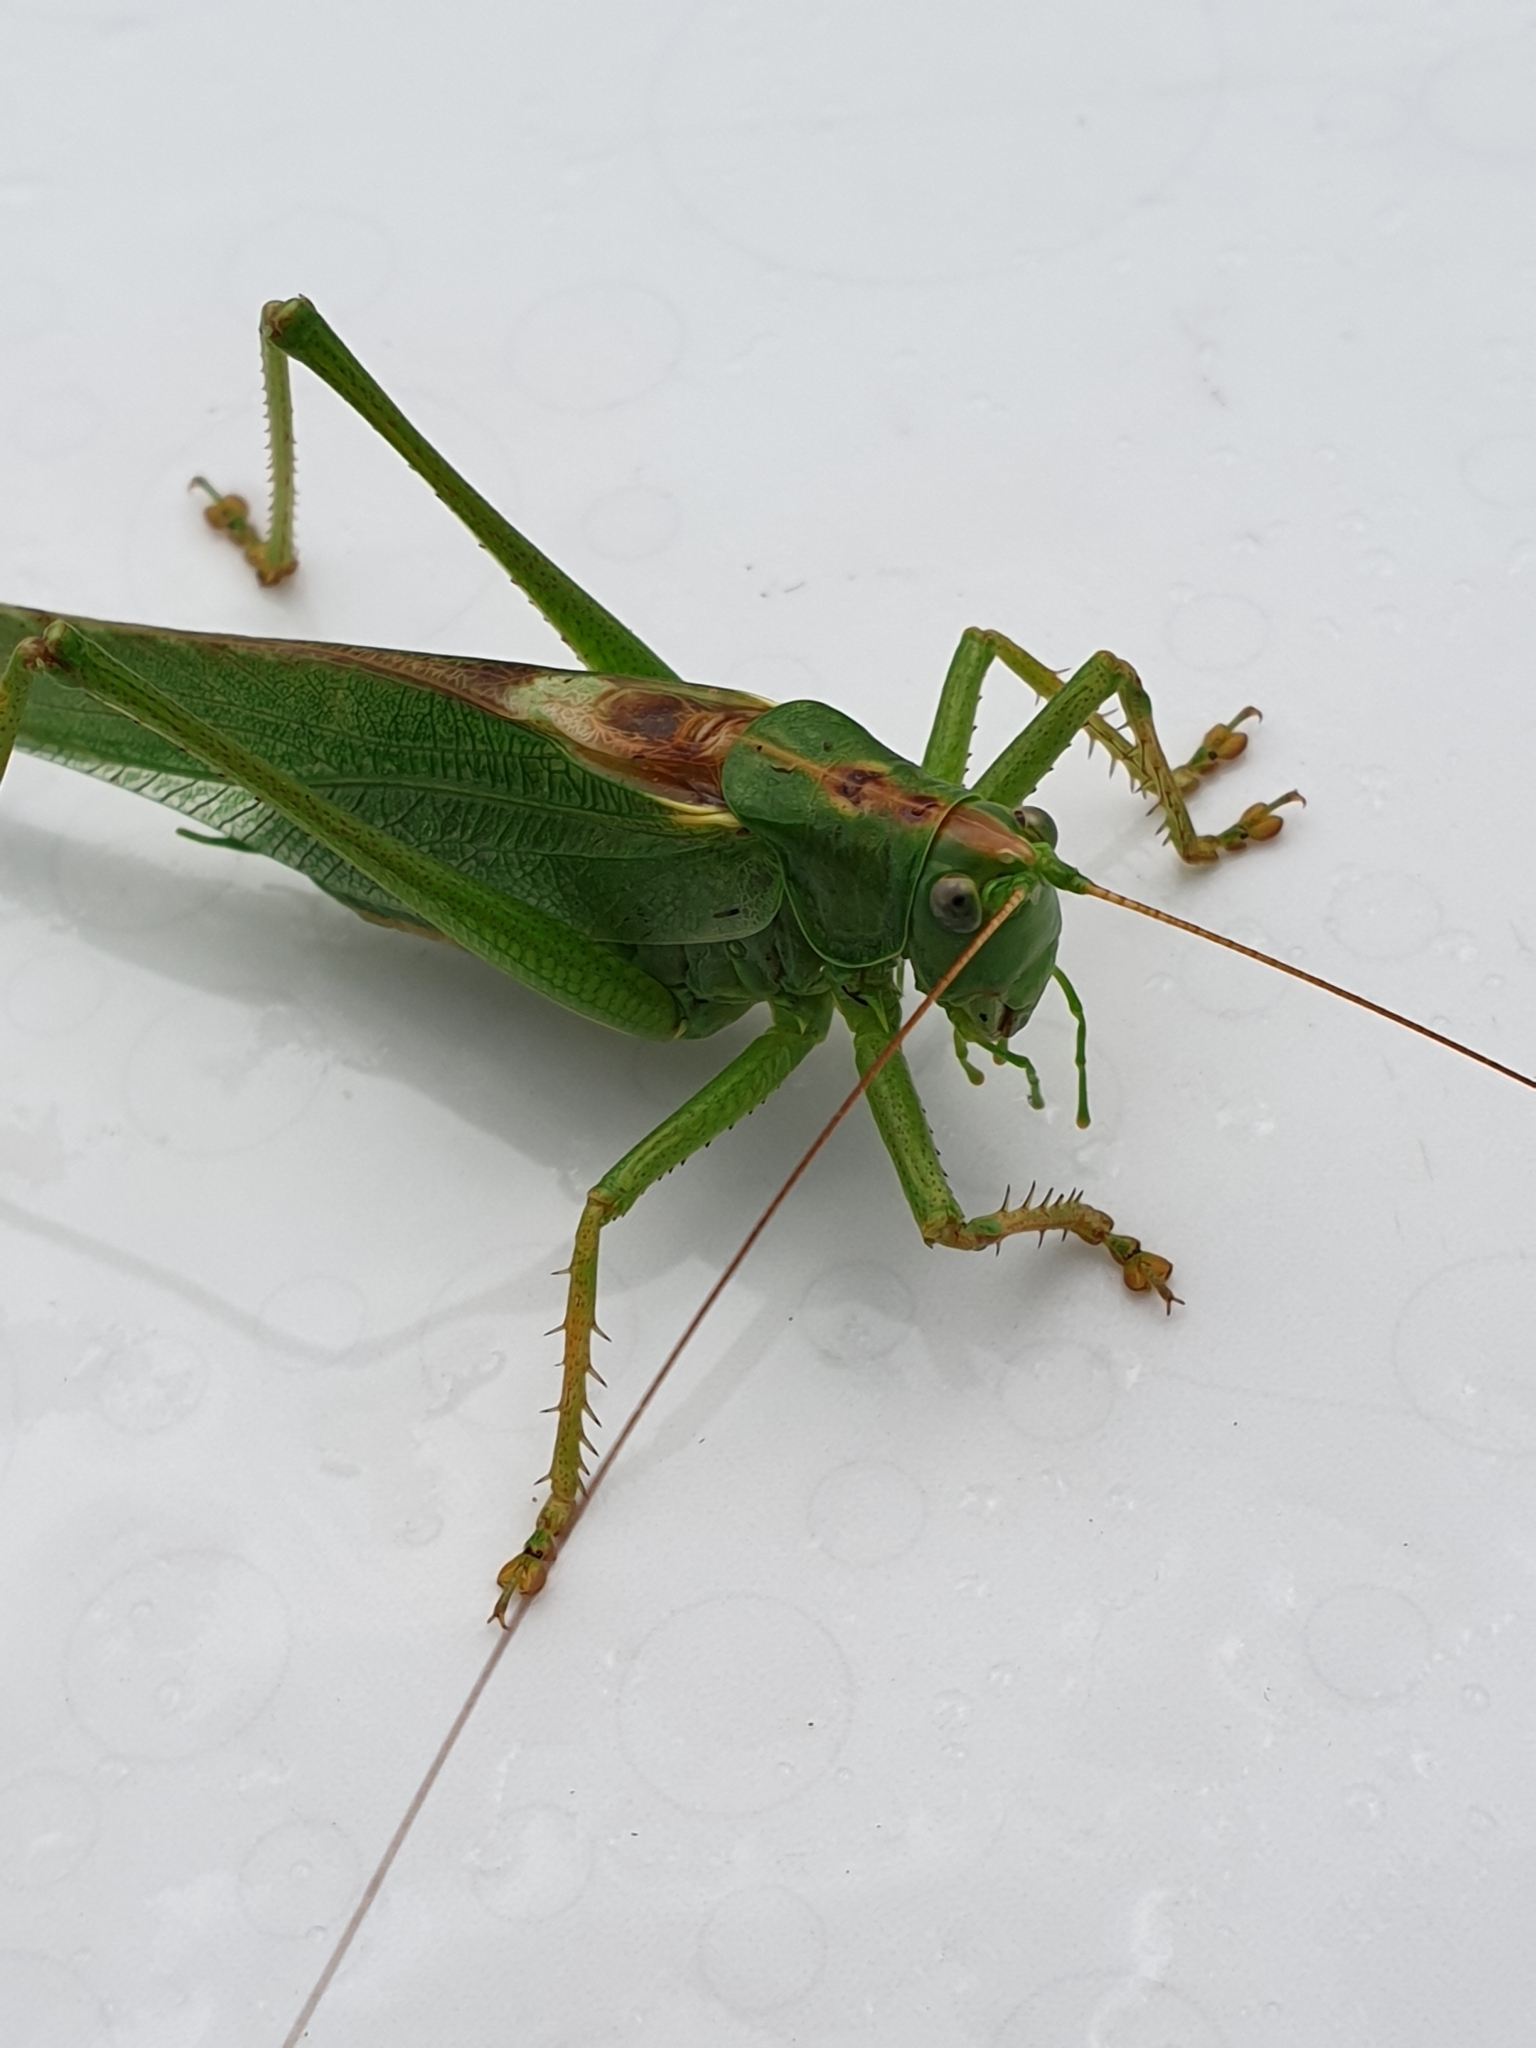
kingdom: Animalia
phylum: Arthropoda
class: Insecta
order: Orthoptera
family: Tettigoniidae
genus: Tettigonia
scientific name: Tettigonia viridissima
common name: Great green bush-cricket
